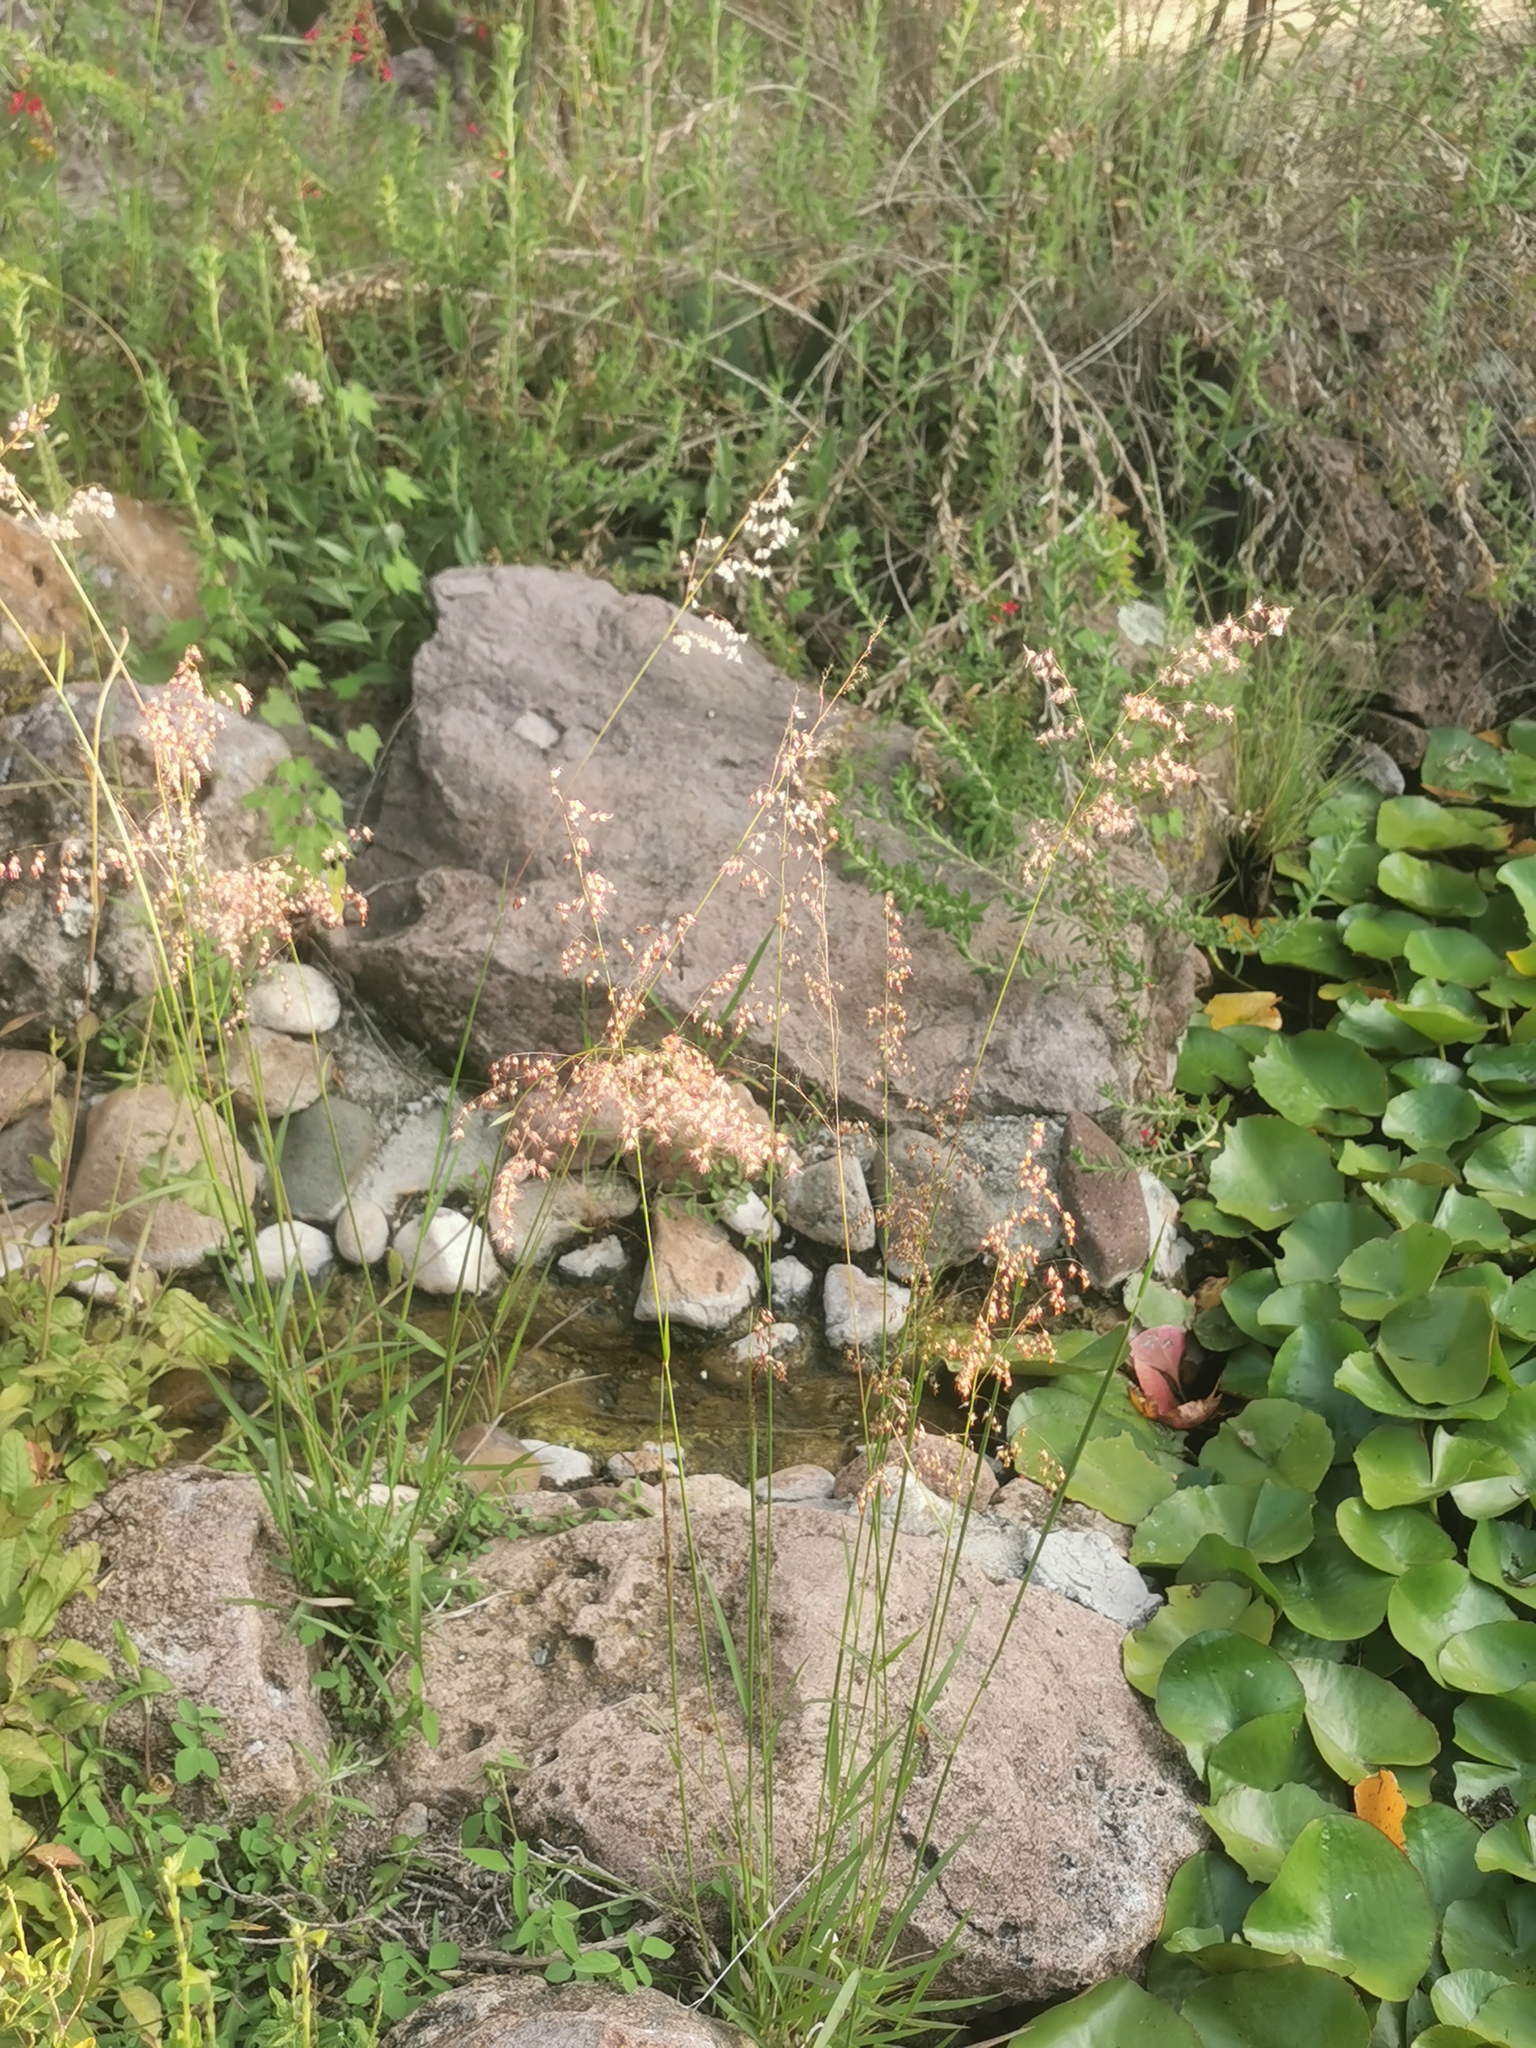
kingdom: Plantae
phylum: Tracheophyta
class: Liliopsida
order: Poales
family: Poaceae
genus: Melinis
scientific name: Melinis repens
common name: Rose natal grass
